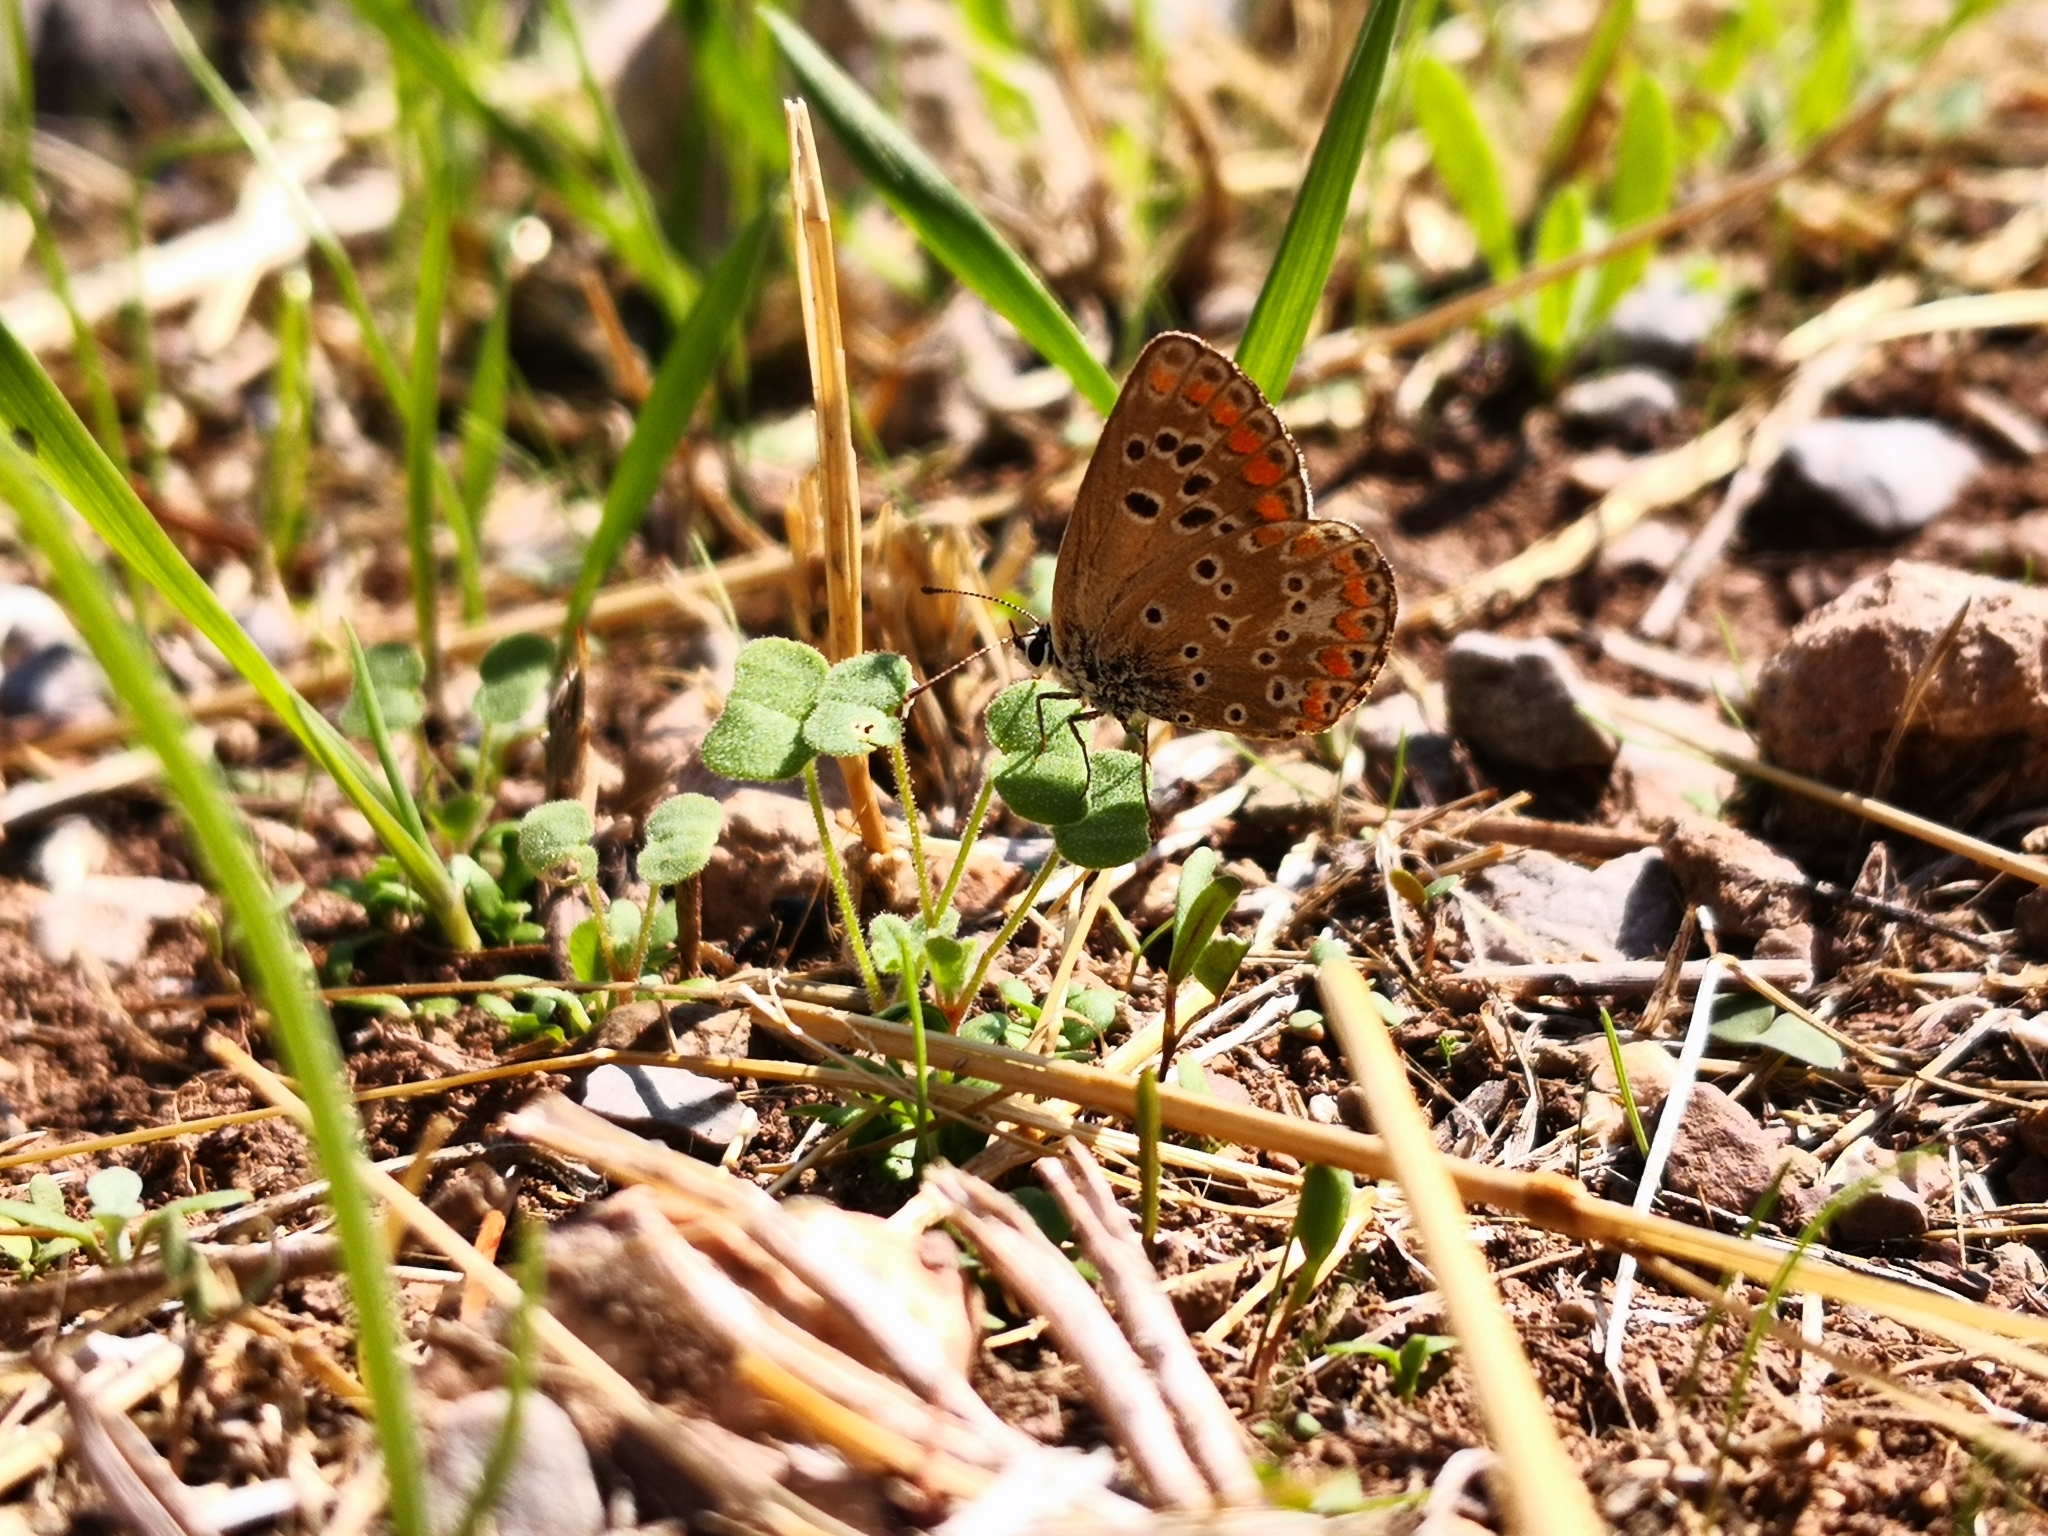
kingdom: Animalia
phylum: Arthropoda
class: Insecta
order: Lepidoptera
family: Lycaenidae
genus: Aricia
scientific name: Aricia agestis
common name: Brown argus
